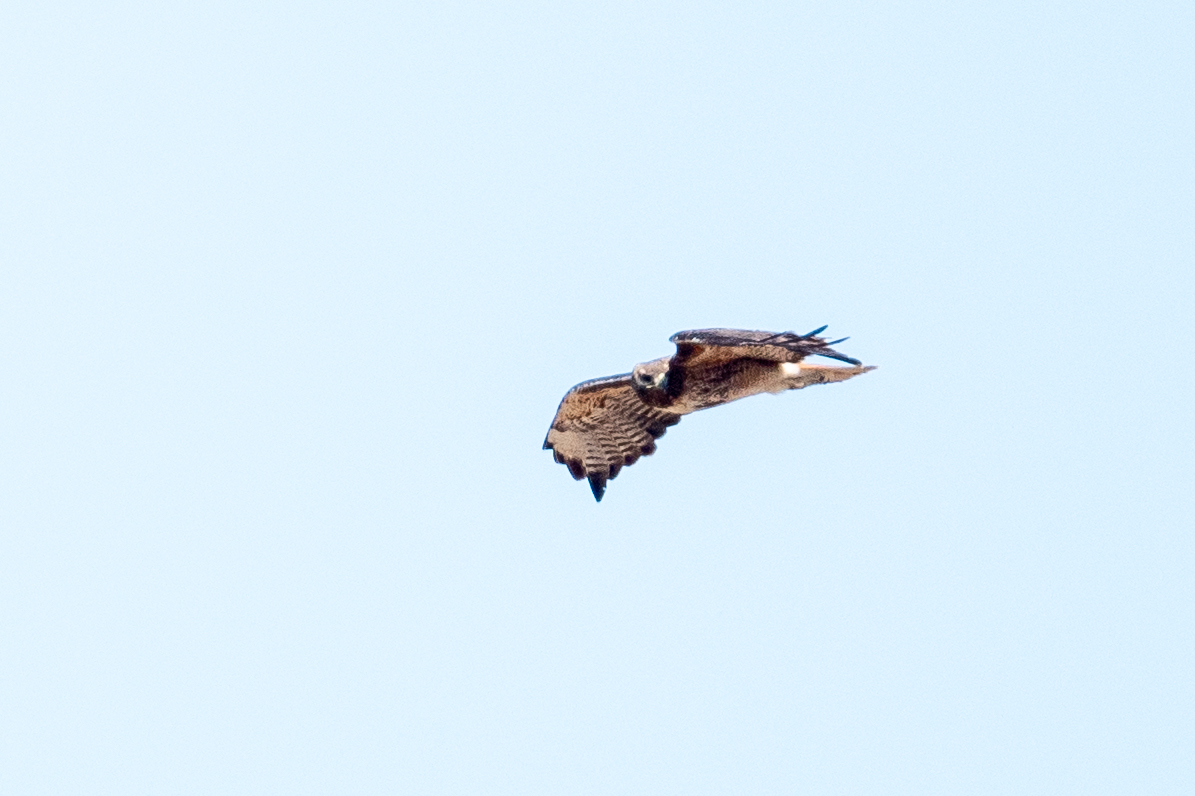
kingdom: Animalia
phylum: Chordata
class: Aves
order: Accipitriformes
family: Accipitridae
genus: Buteo
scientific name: Buteo jamaicensis
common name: Red-tailed hawk
